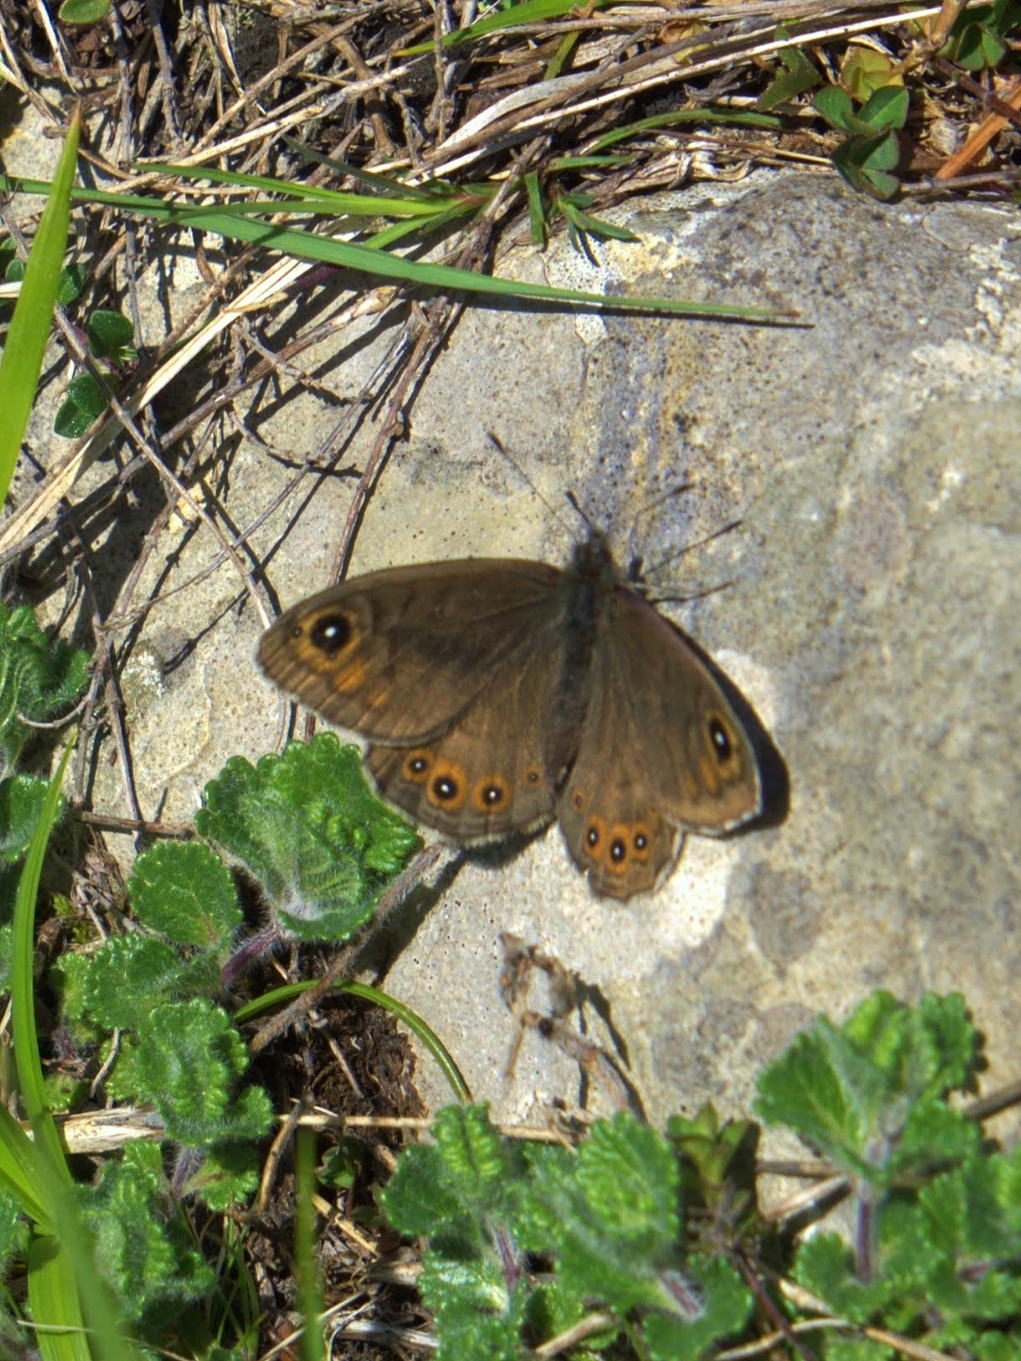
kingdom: Animalia
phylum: Arthropoda
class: Insecta
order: Lepidoptera
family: Nymphalidae
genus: Pararge
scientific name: Pararge petropolitana
